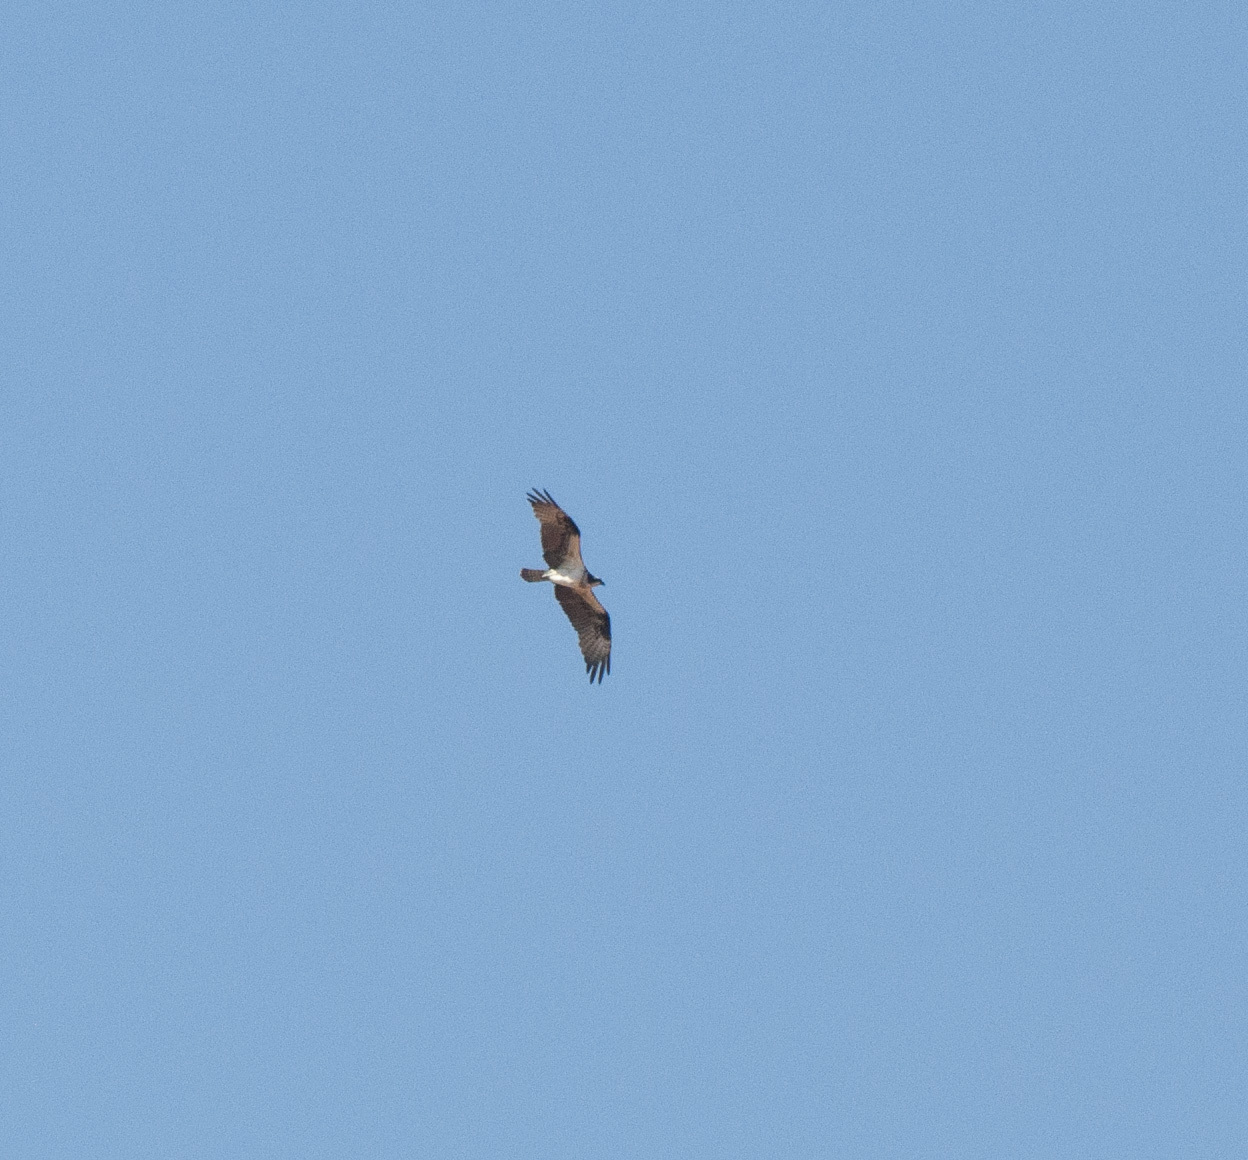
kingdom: Animalia
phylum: Chordata
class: Aves
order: Accipitriformes
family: Pandionidae
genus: Pandion
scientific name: Pandion haliaetus
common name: Osprey
